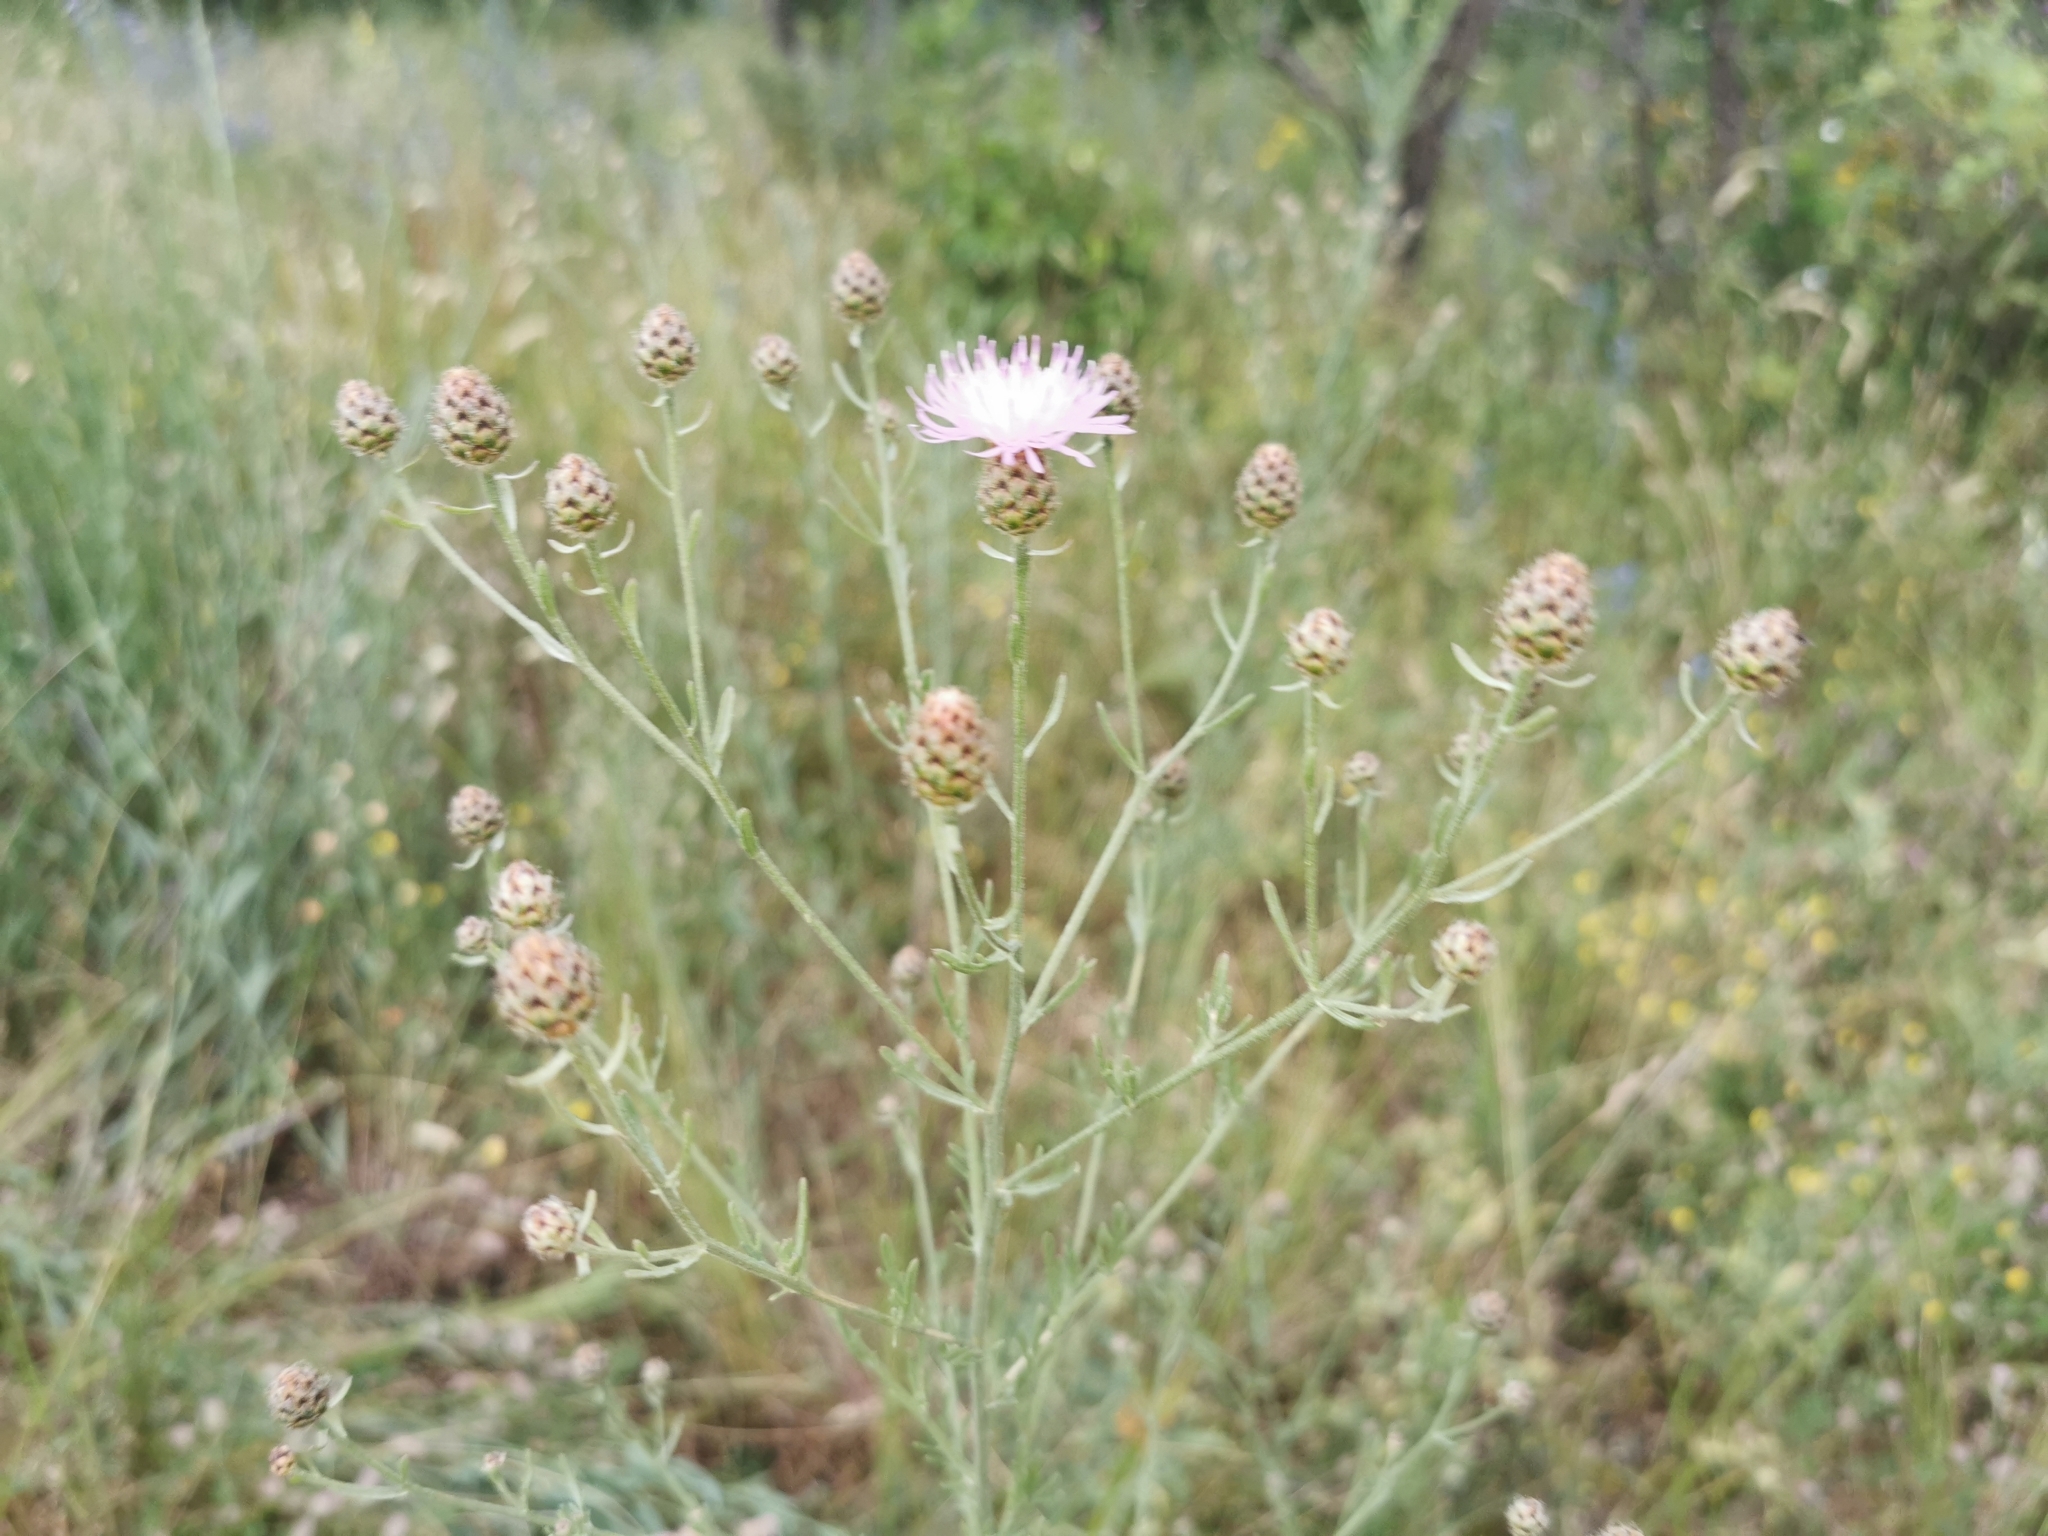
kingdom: Plantae
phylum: Tracheophyta
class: Magnoliopsida
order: Asterales
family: Asteraceae
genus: Centaurea
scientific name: Centaurea stoebe
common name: Spotted knapweed
